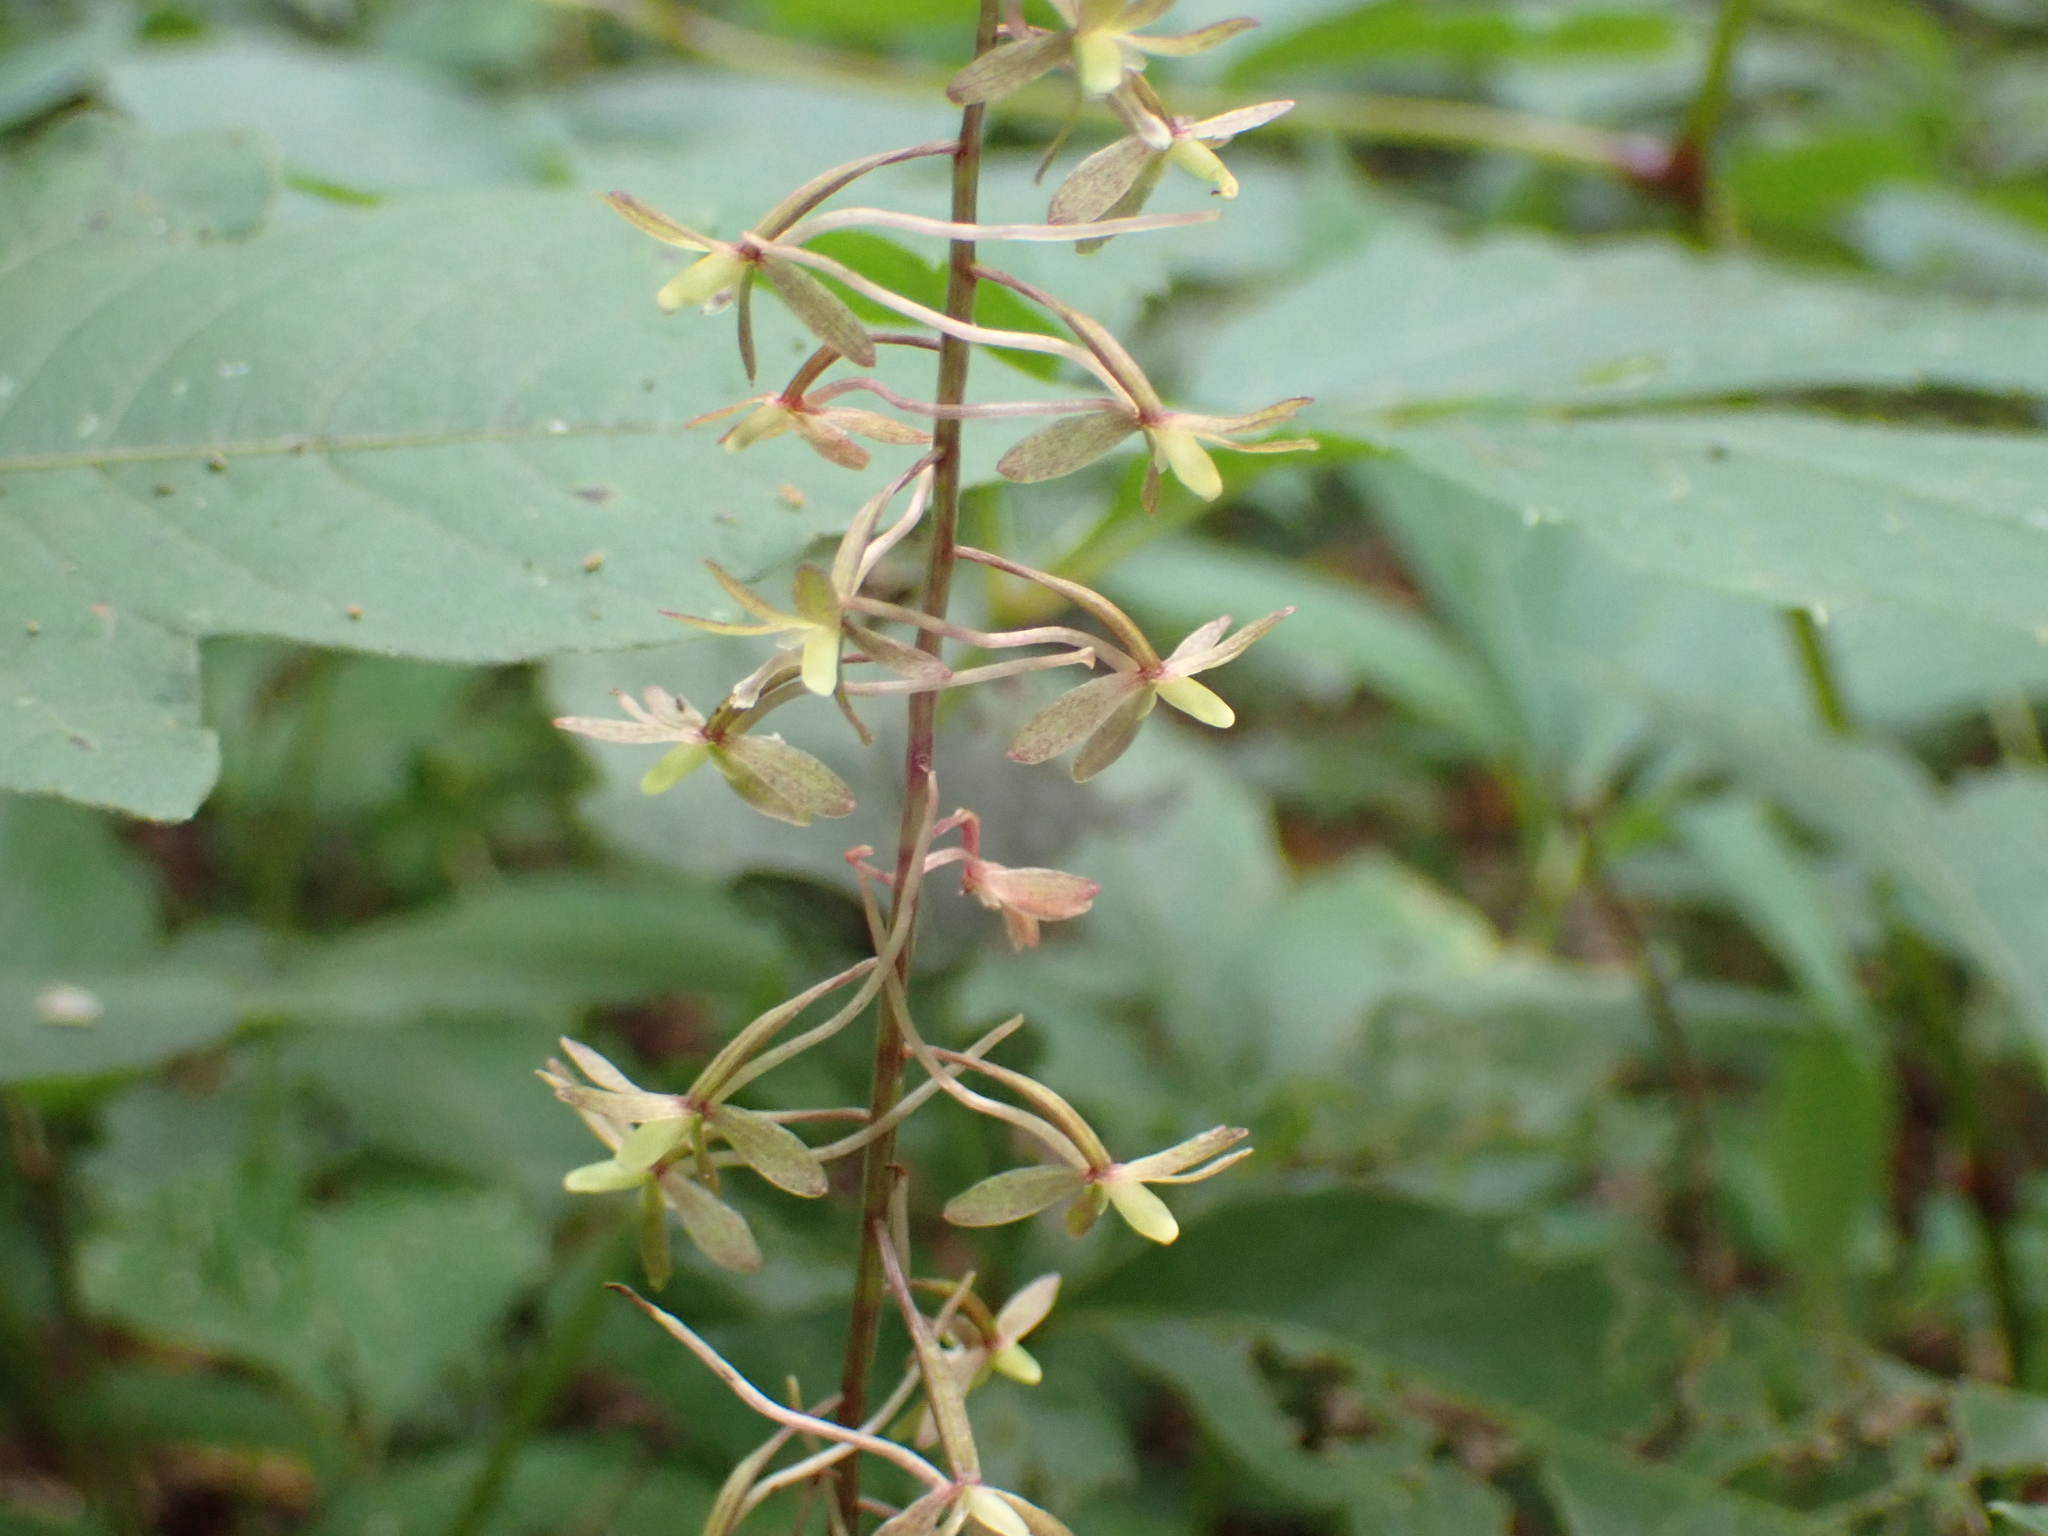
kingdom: Plantae
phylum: Tracheophyta
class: Liliopsida
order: Asparagales
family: Orchidaceae
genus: Tipularia
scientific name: Tipularia discolor
